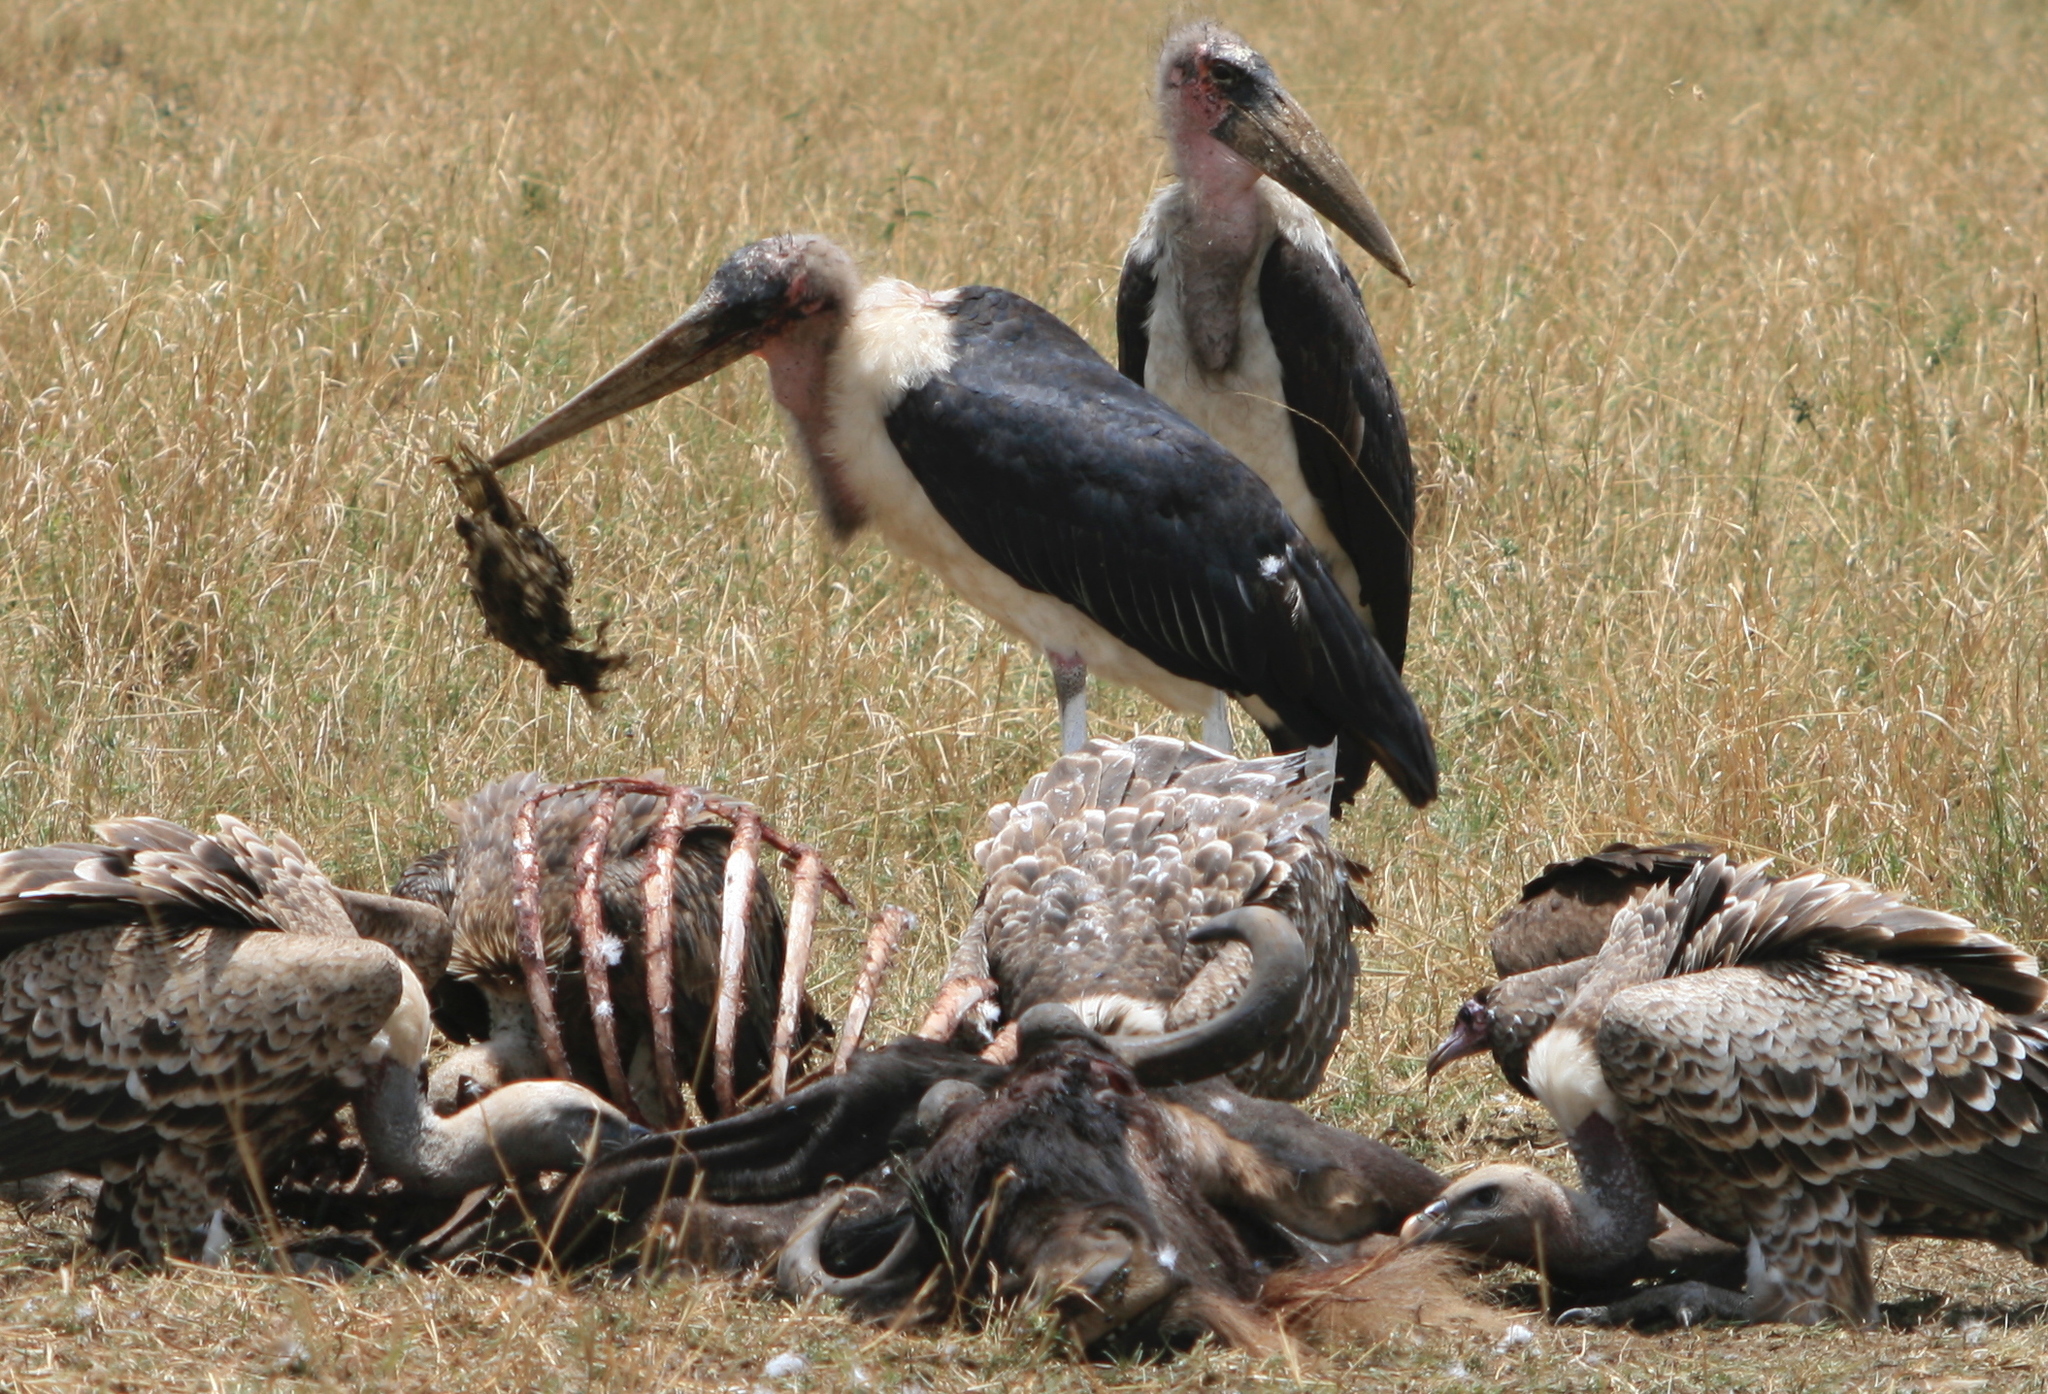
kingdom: Animalia
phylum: Chordata
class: Aves
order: Ciconiiformes
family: Ciconiidae
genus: Leptoptilos
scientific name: Leptoptilos crumenifer
